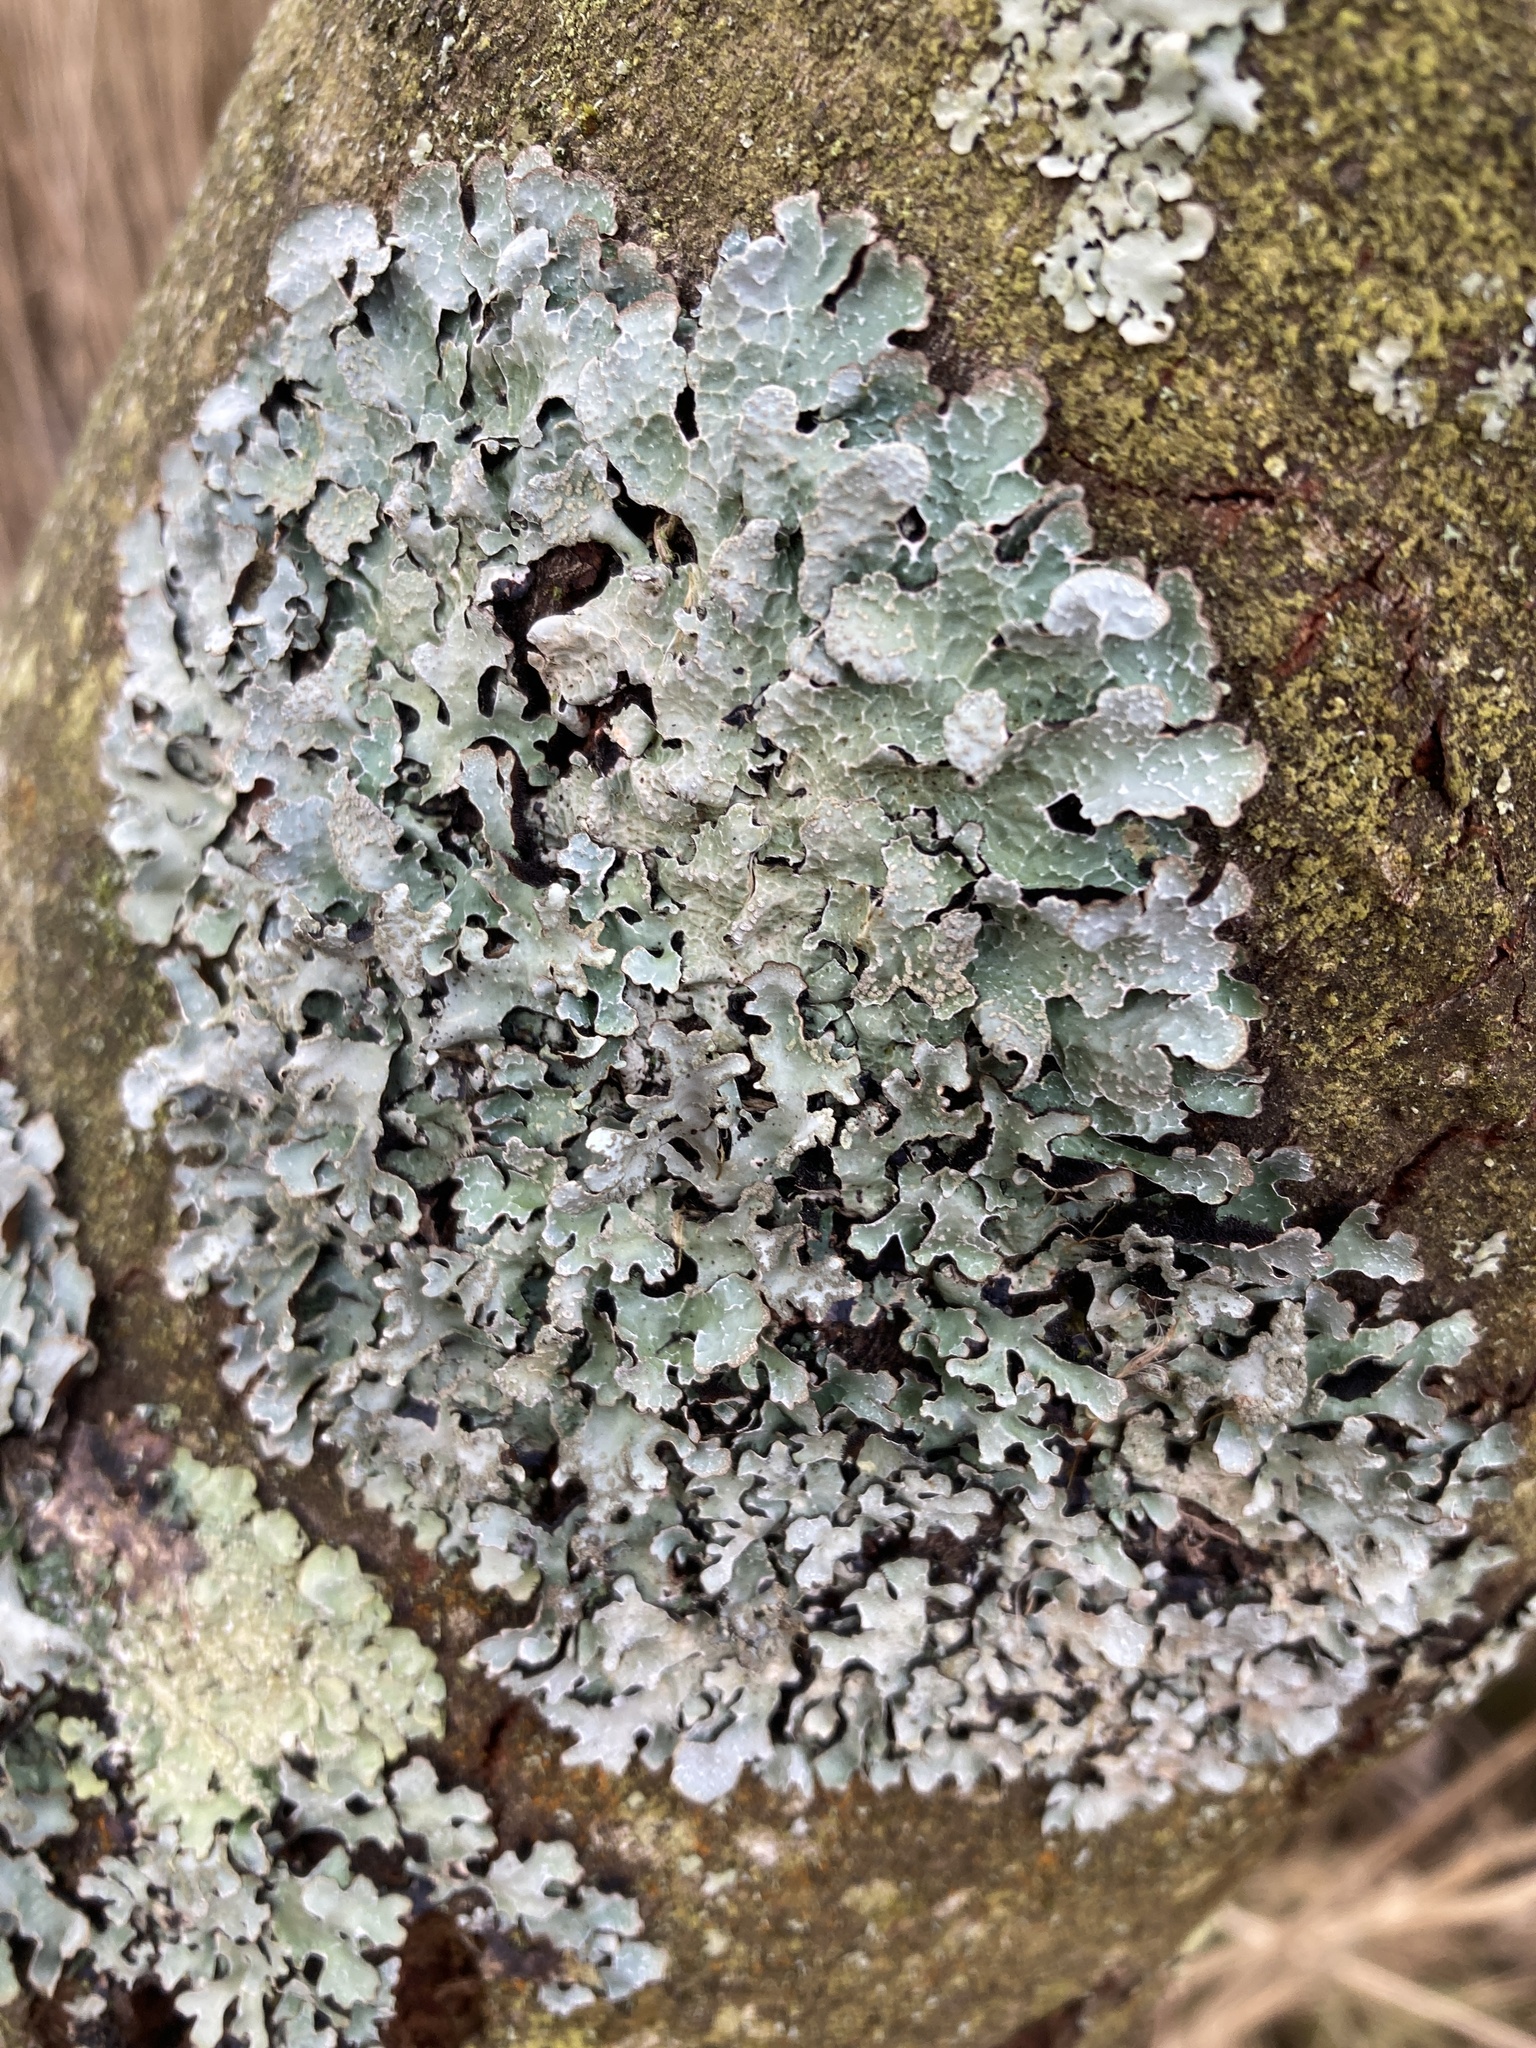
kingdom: Fungi
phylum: Ascomycota
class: Lecanoromycetes
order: Lecanorales
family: Parmeliaceae
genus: Parmelia
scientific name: Parmelia sulcata
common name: Netted shield lichen
